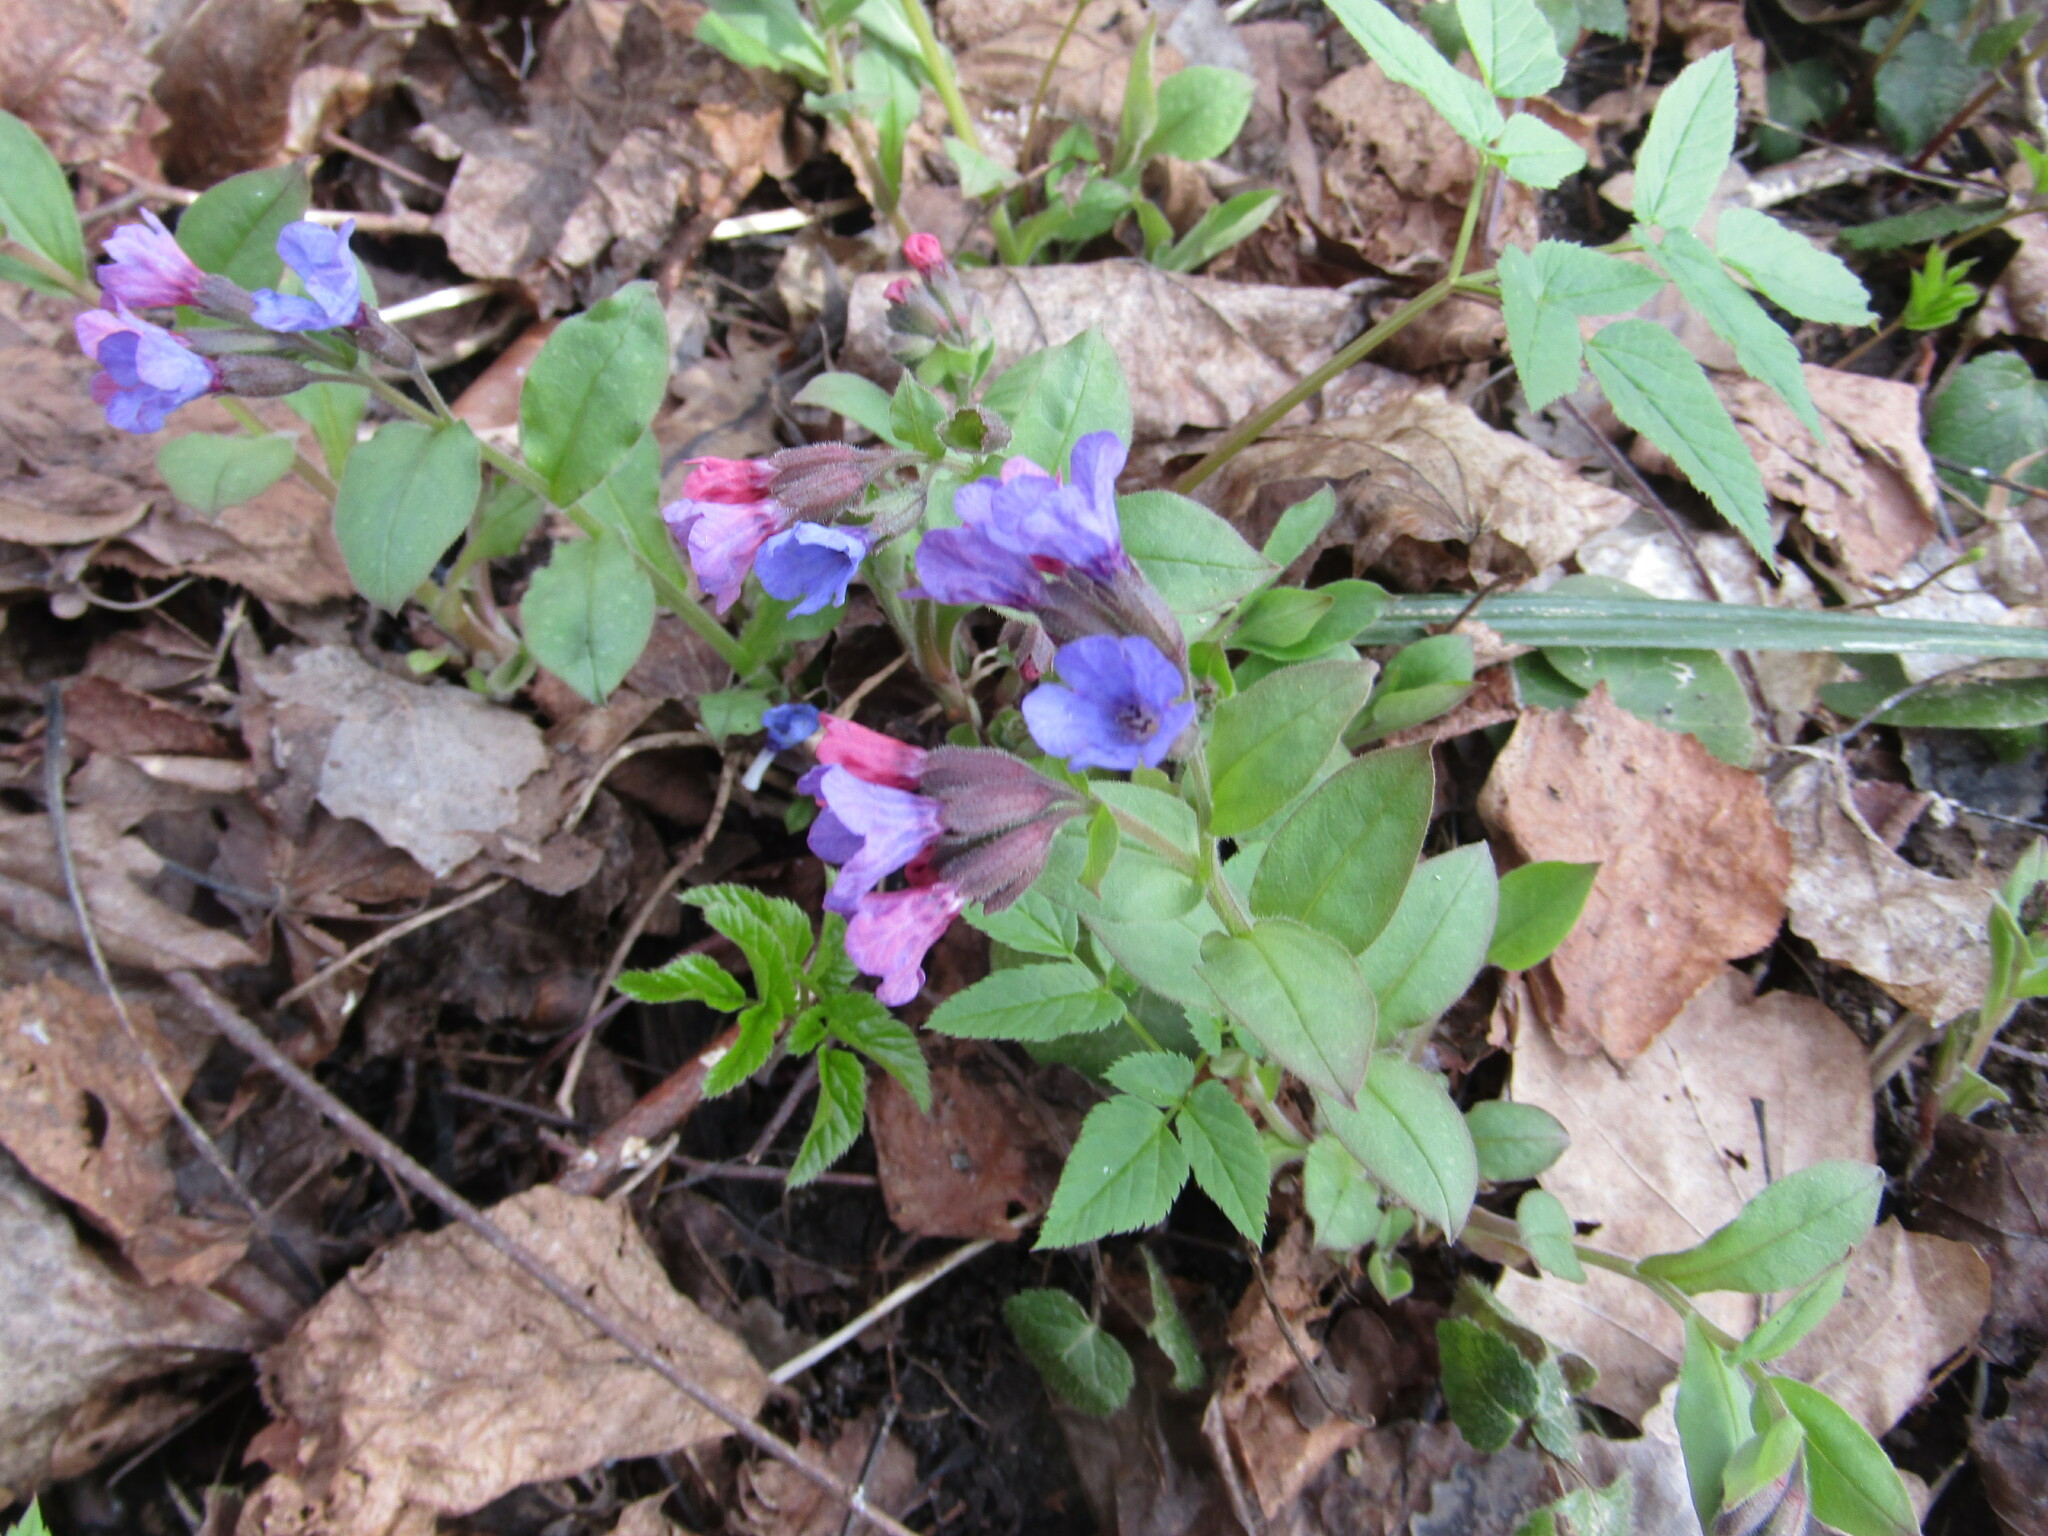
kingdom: Plantae
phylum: Tracheophyta
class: Magnoliopsida
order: Boraginales
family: Boraginaceae
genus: Pulmonaria
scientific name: Pulmonaria obscura
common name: Suffolk lungwort
